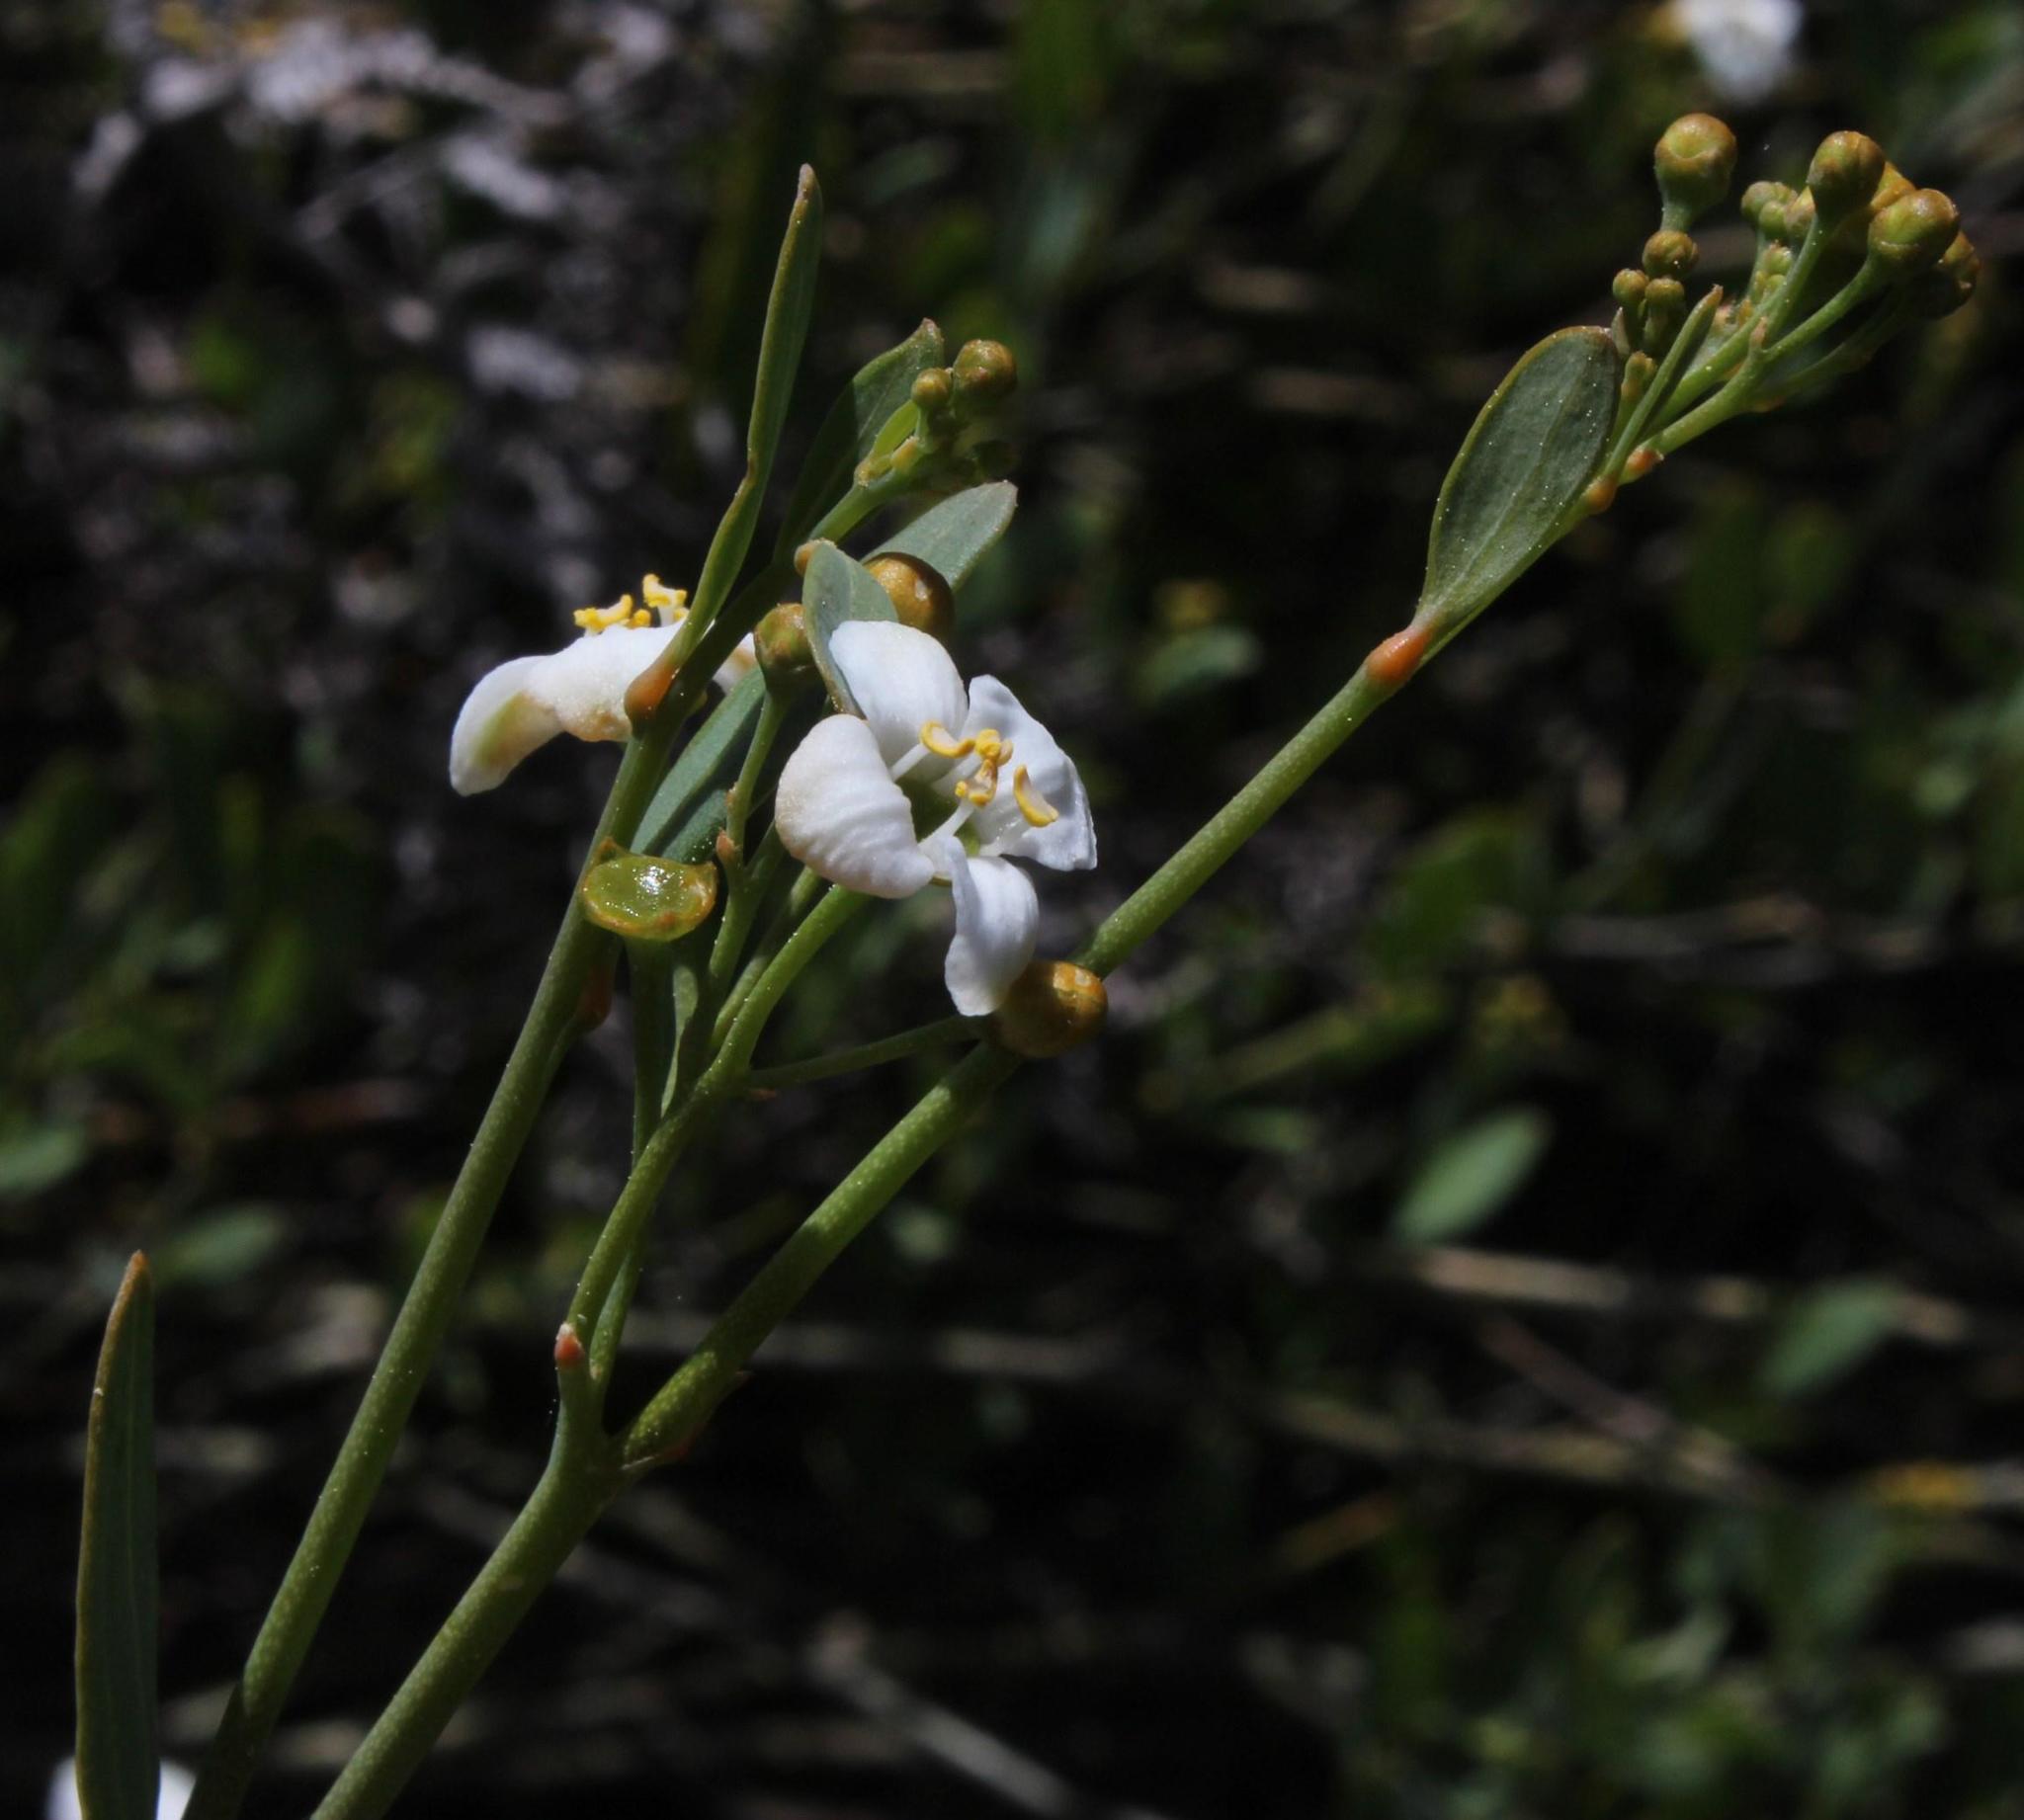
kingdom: Plantae
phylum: Tracheophyta
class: Magnoliopsida
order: Solanales
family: Montiniaceae
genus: Montinia
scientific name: Montinia caryophyllacea
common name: Wild clove-bush
